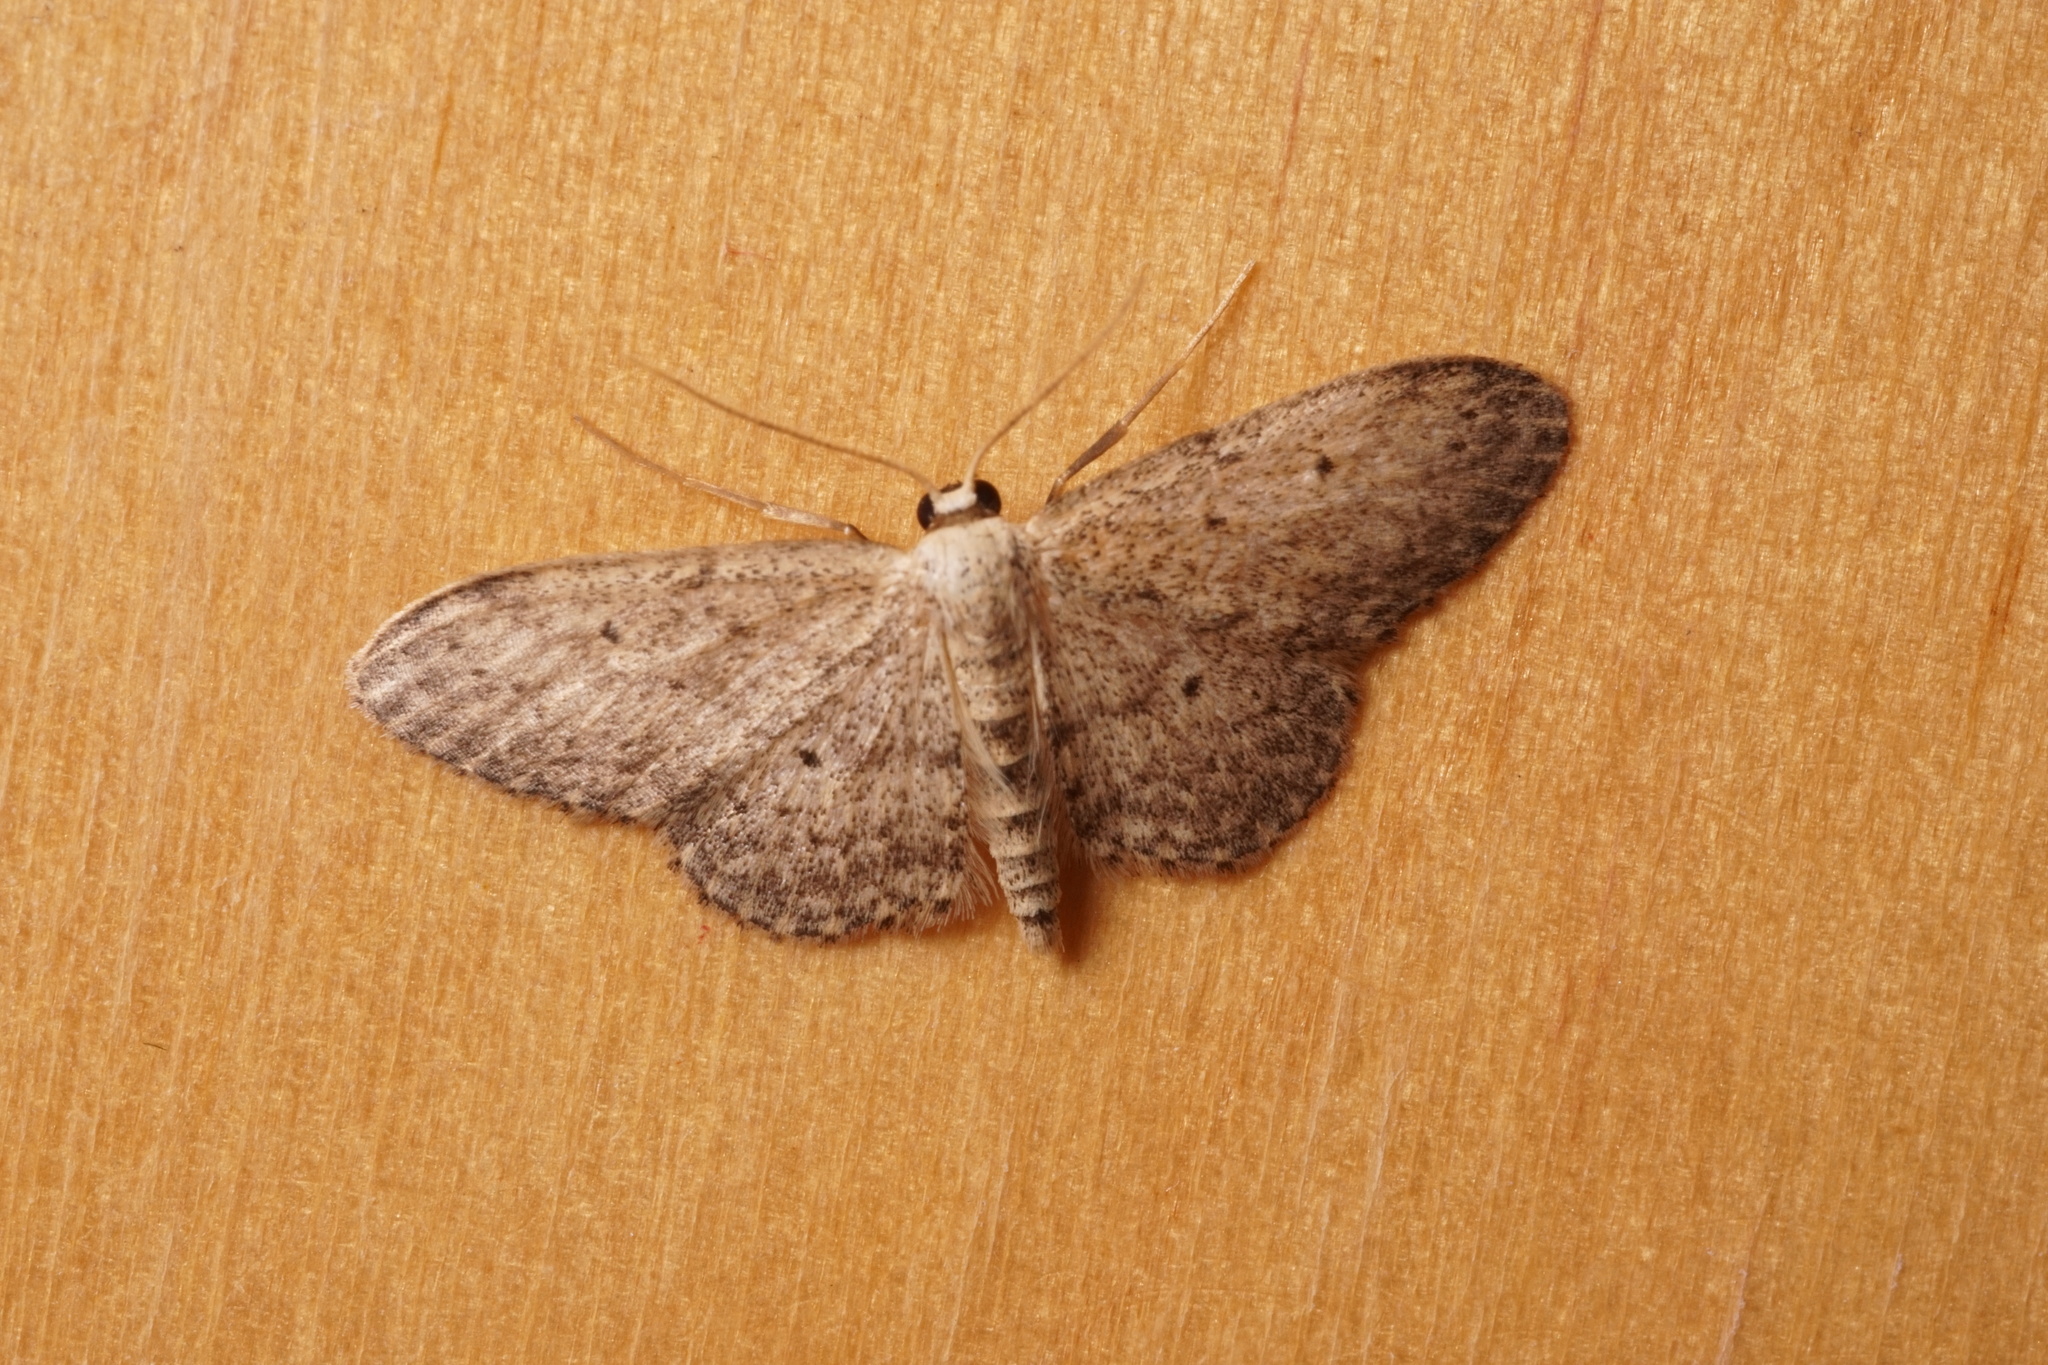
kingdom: Animalia
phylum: Arthropoda
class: Insecta
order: Lepidoptera
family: Geometridae
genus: Idaea
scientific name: Idaea seriata
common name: Small dusty wave
